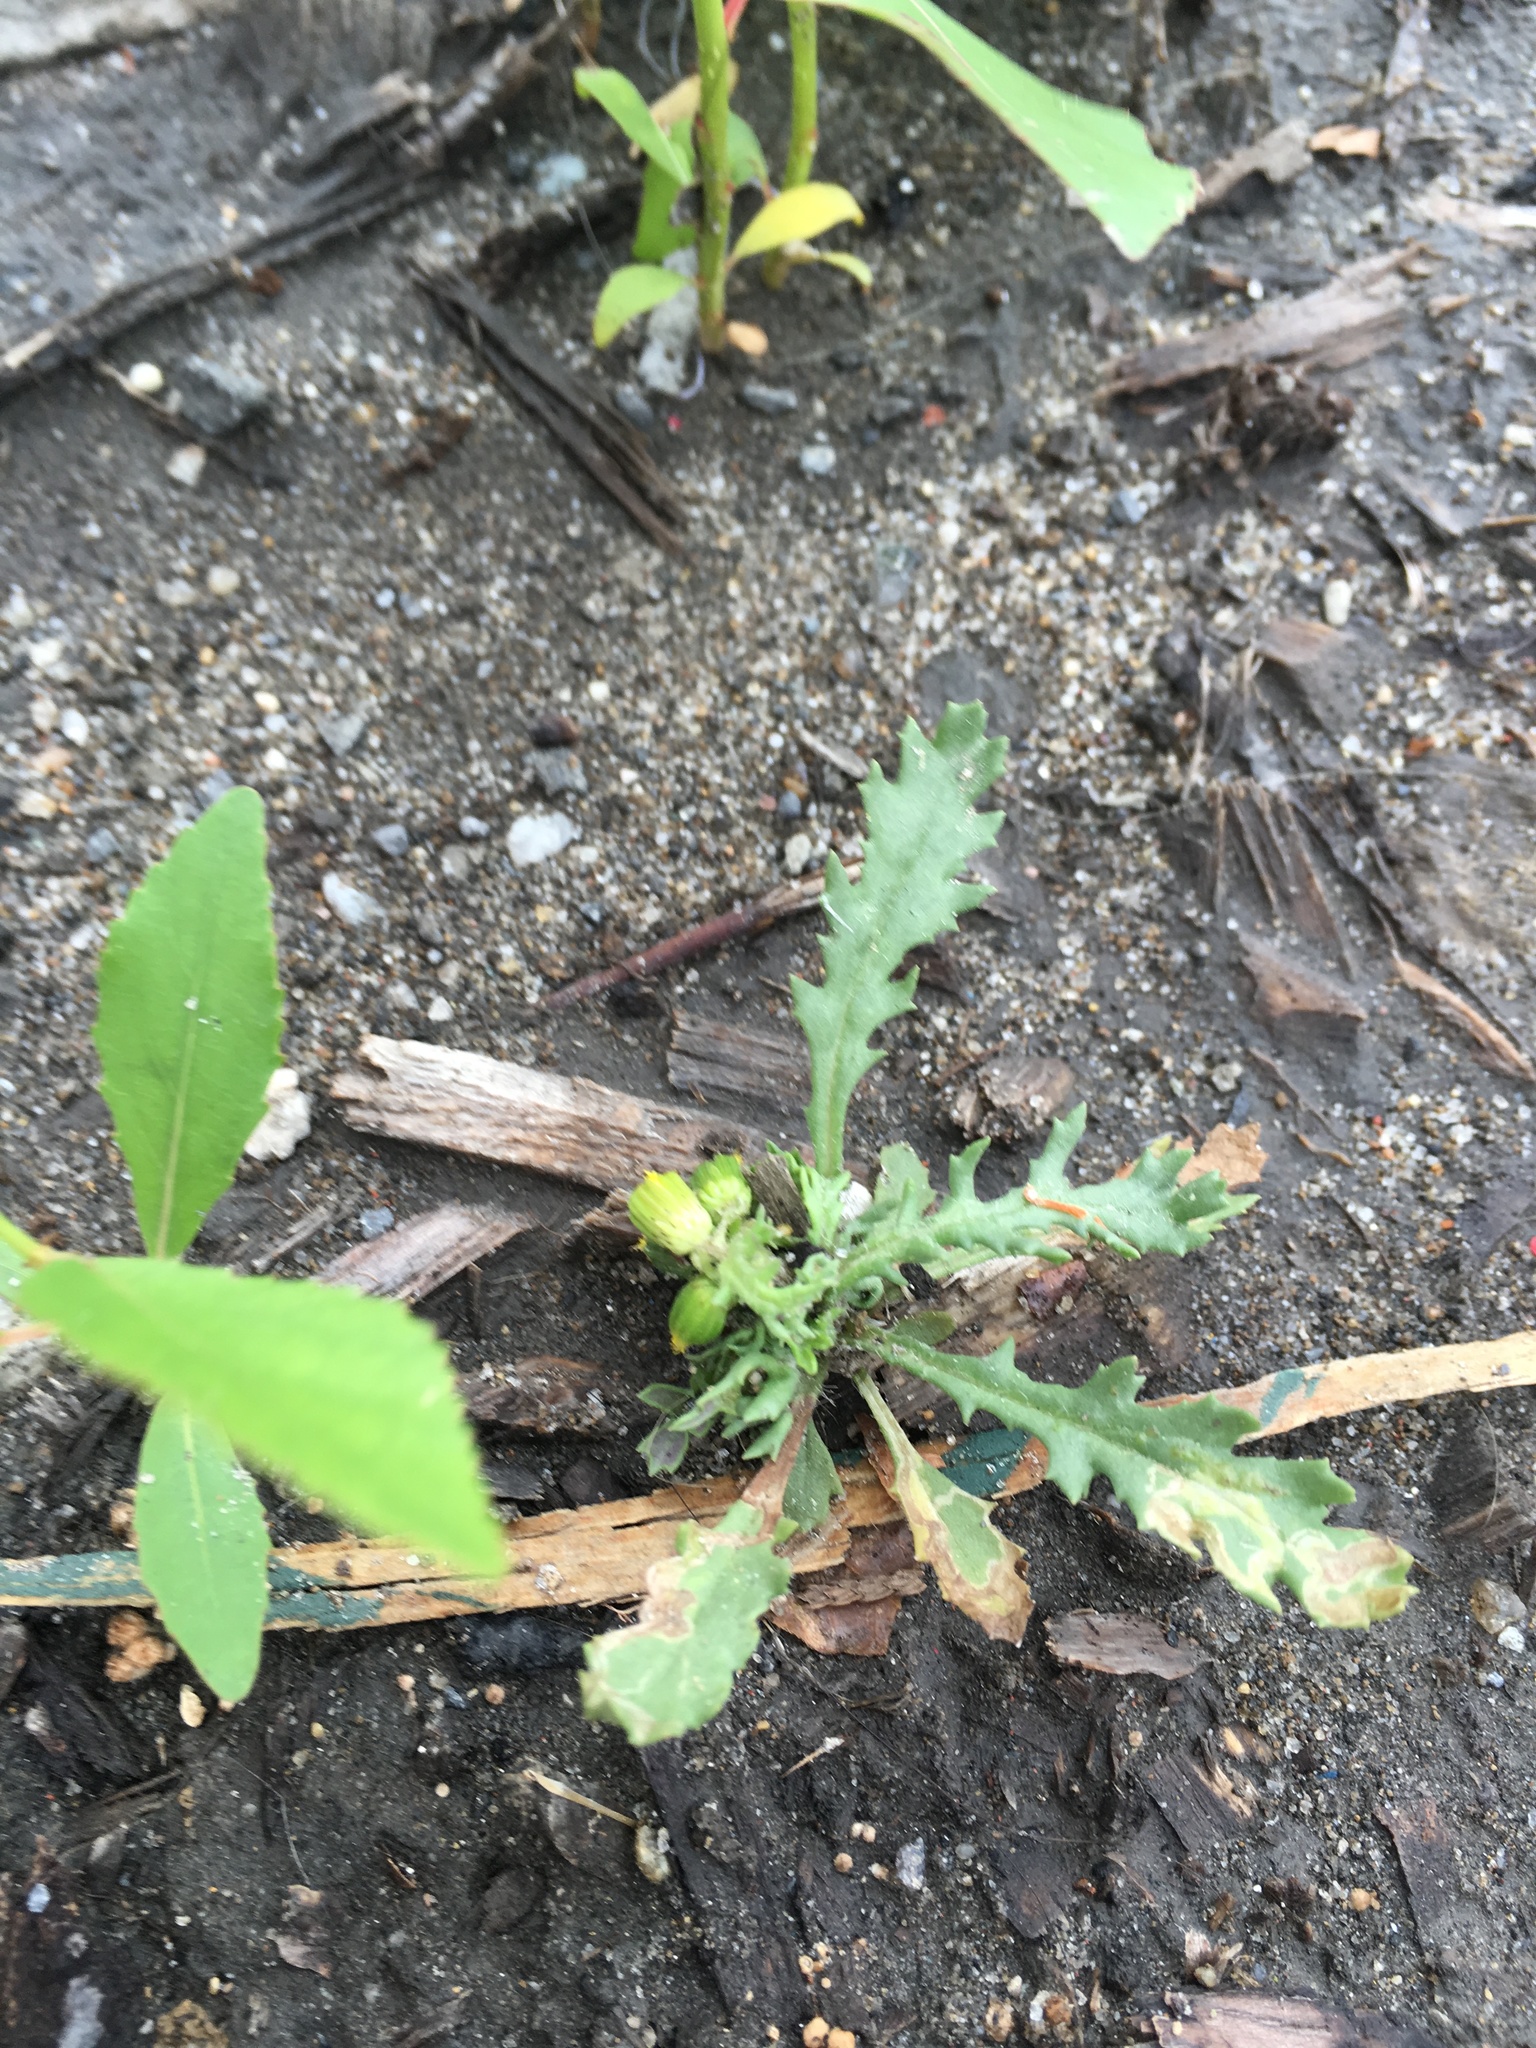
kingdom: Plantae
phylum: Tracheophyta
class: Magnoliopsida
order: Asterales
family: Asteraceae
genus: Senecio
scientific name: Senecio vulgaris
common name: Old-man-in-the-spring
